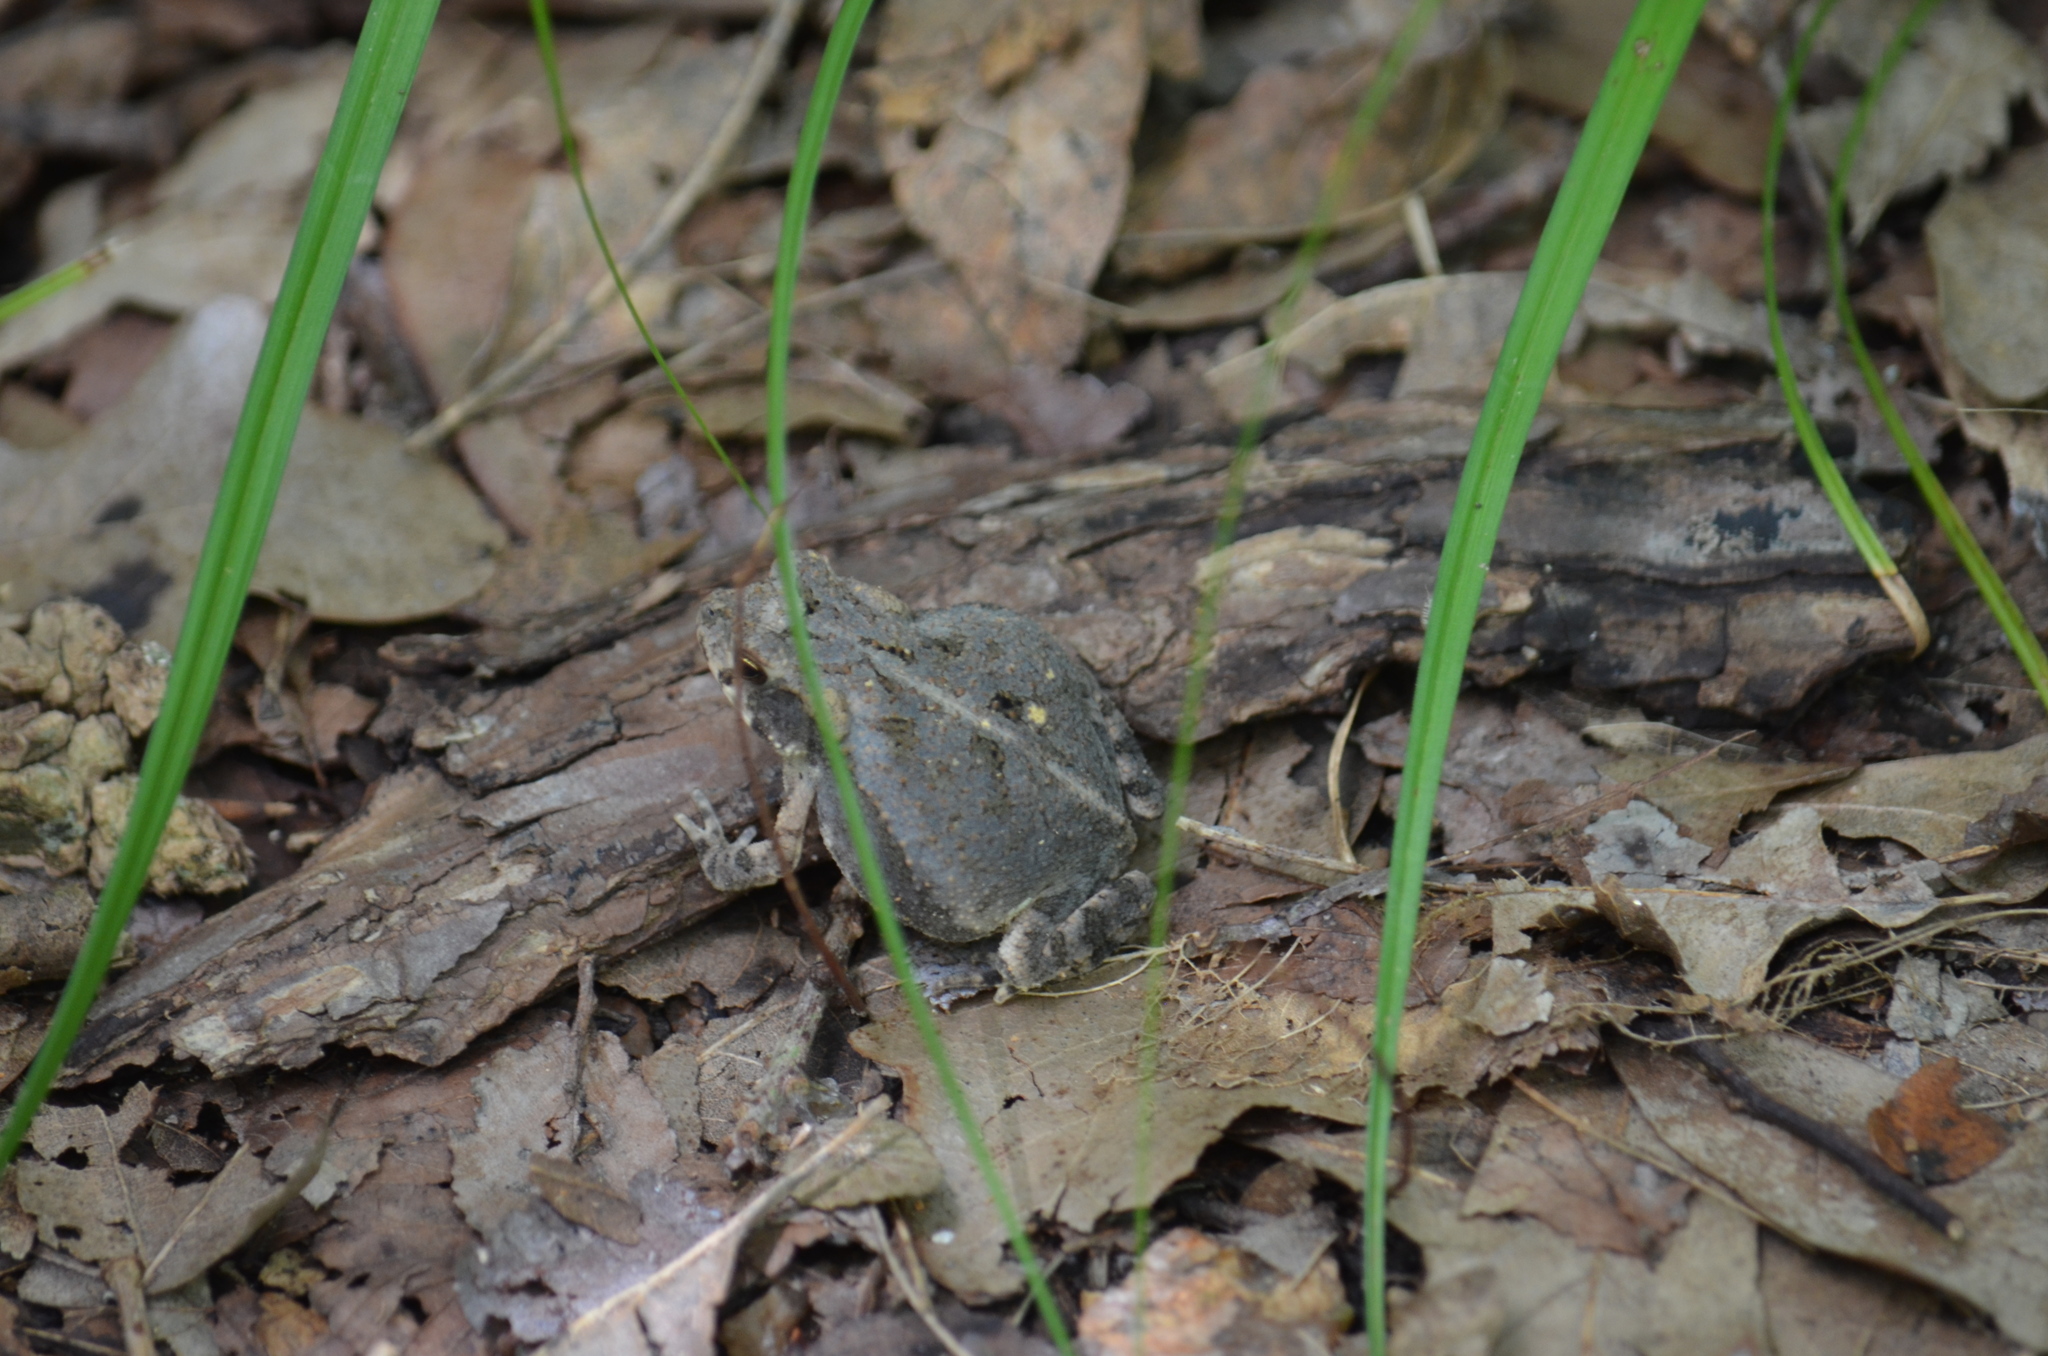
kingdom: Animalia
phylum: Chordata
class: Amphibia
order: Anura
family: Bufonidae
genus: Incilius
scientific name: Incilius nebulifer
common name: Gulf coast toad
